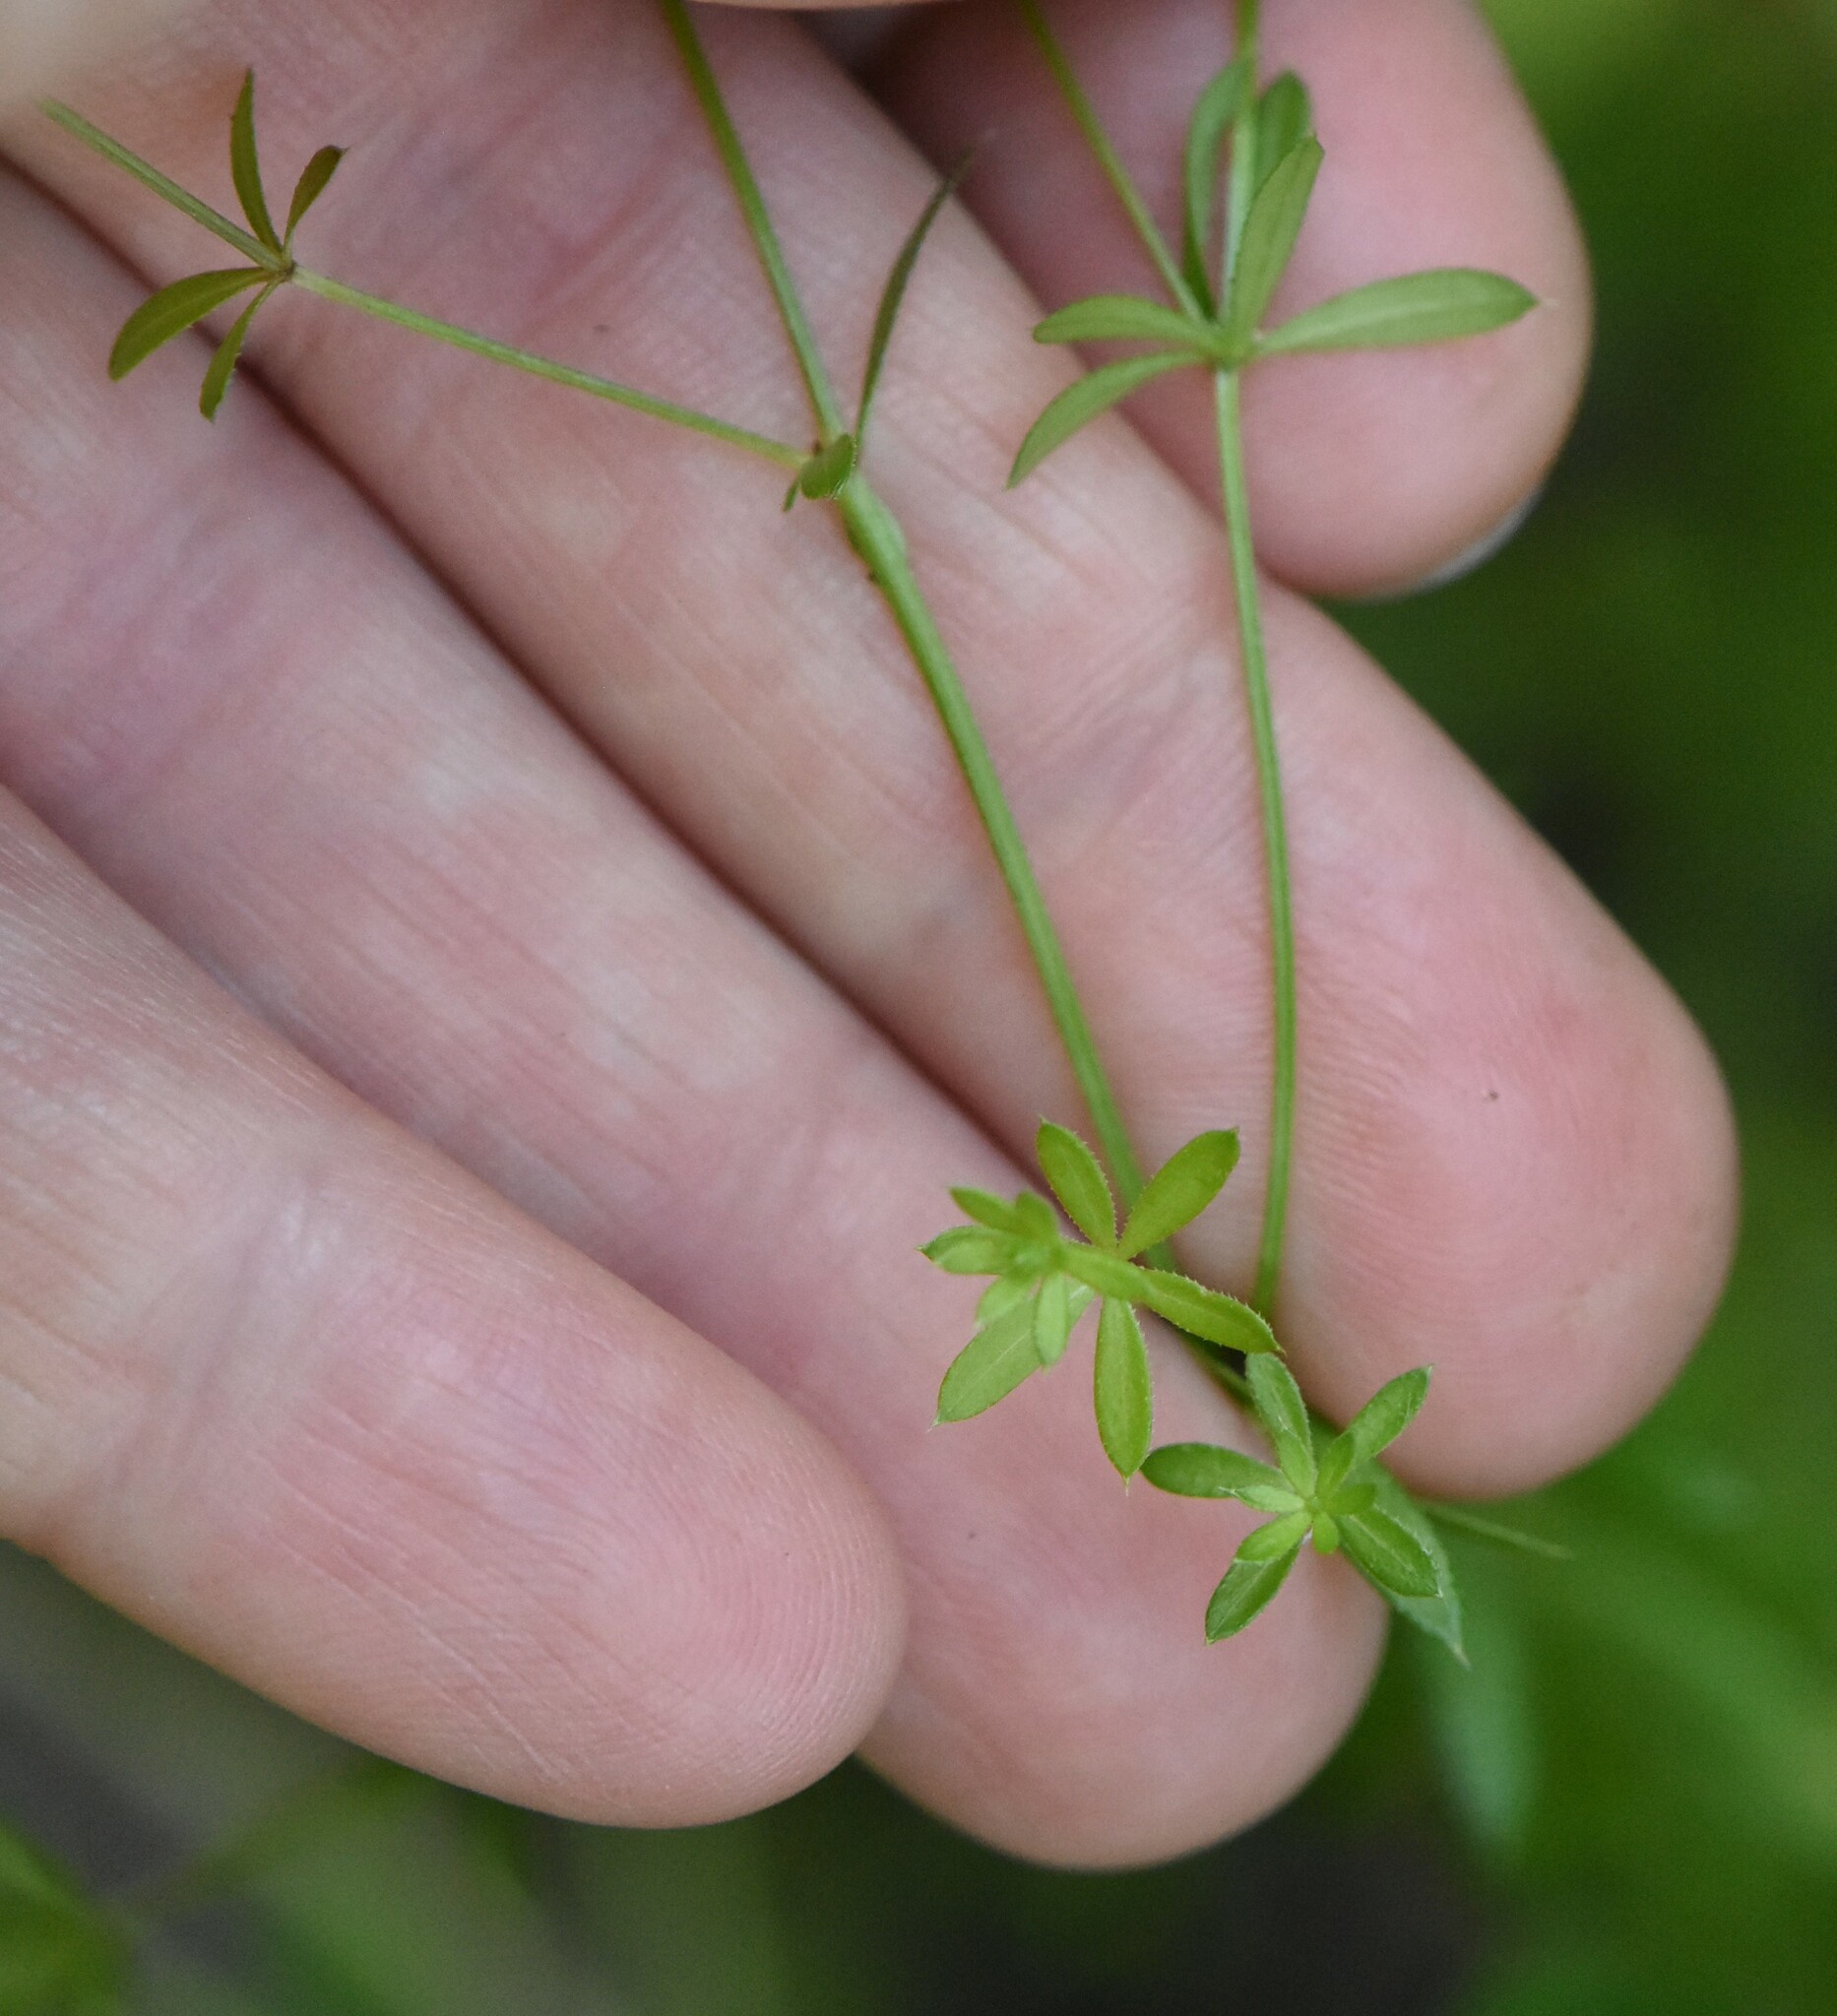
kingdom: Plantae
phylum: Tracheophyta
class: Magnoliopsida
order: Gentianales
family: Rubiaceae
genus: Galium
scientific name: Galium uliginosum
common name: Fen bedstraw
